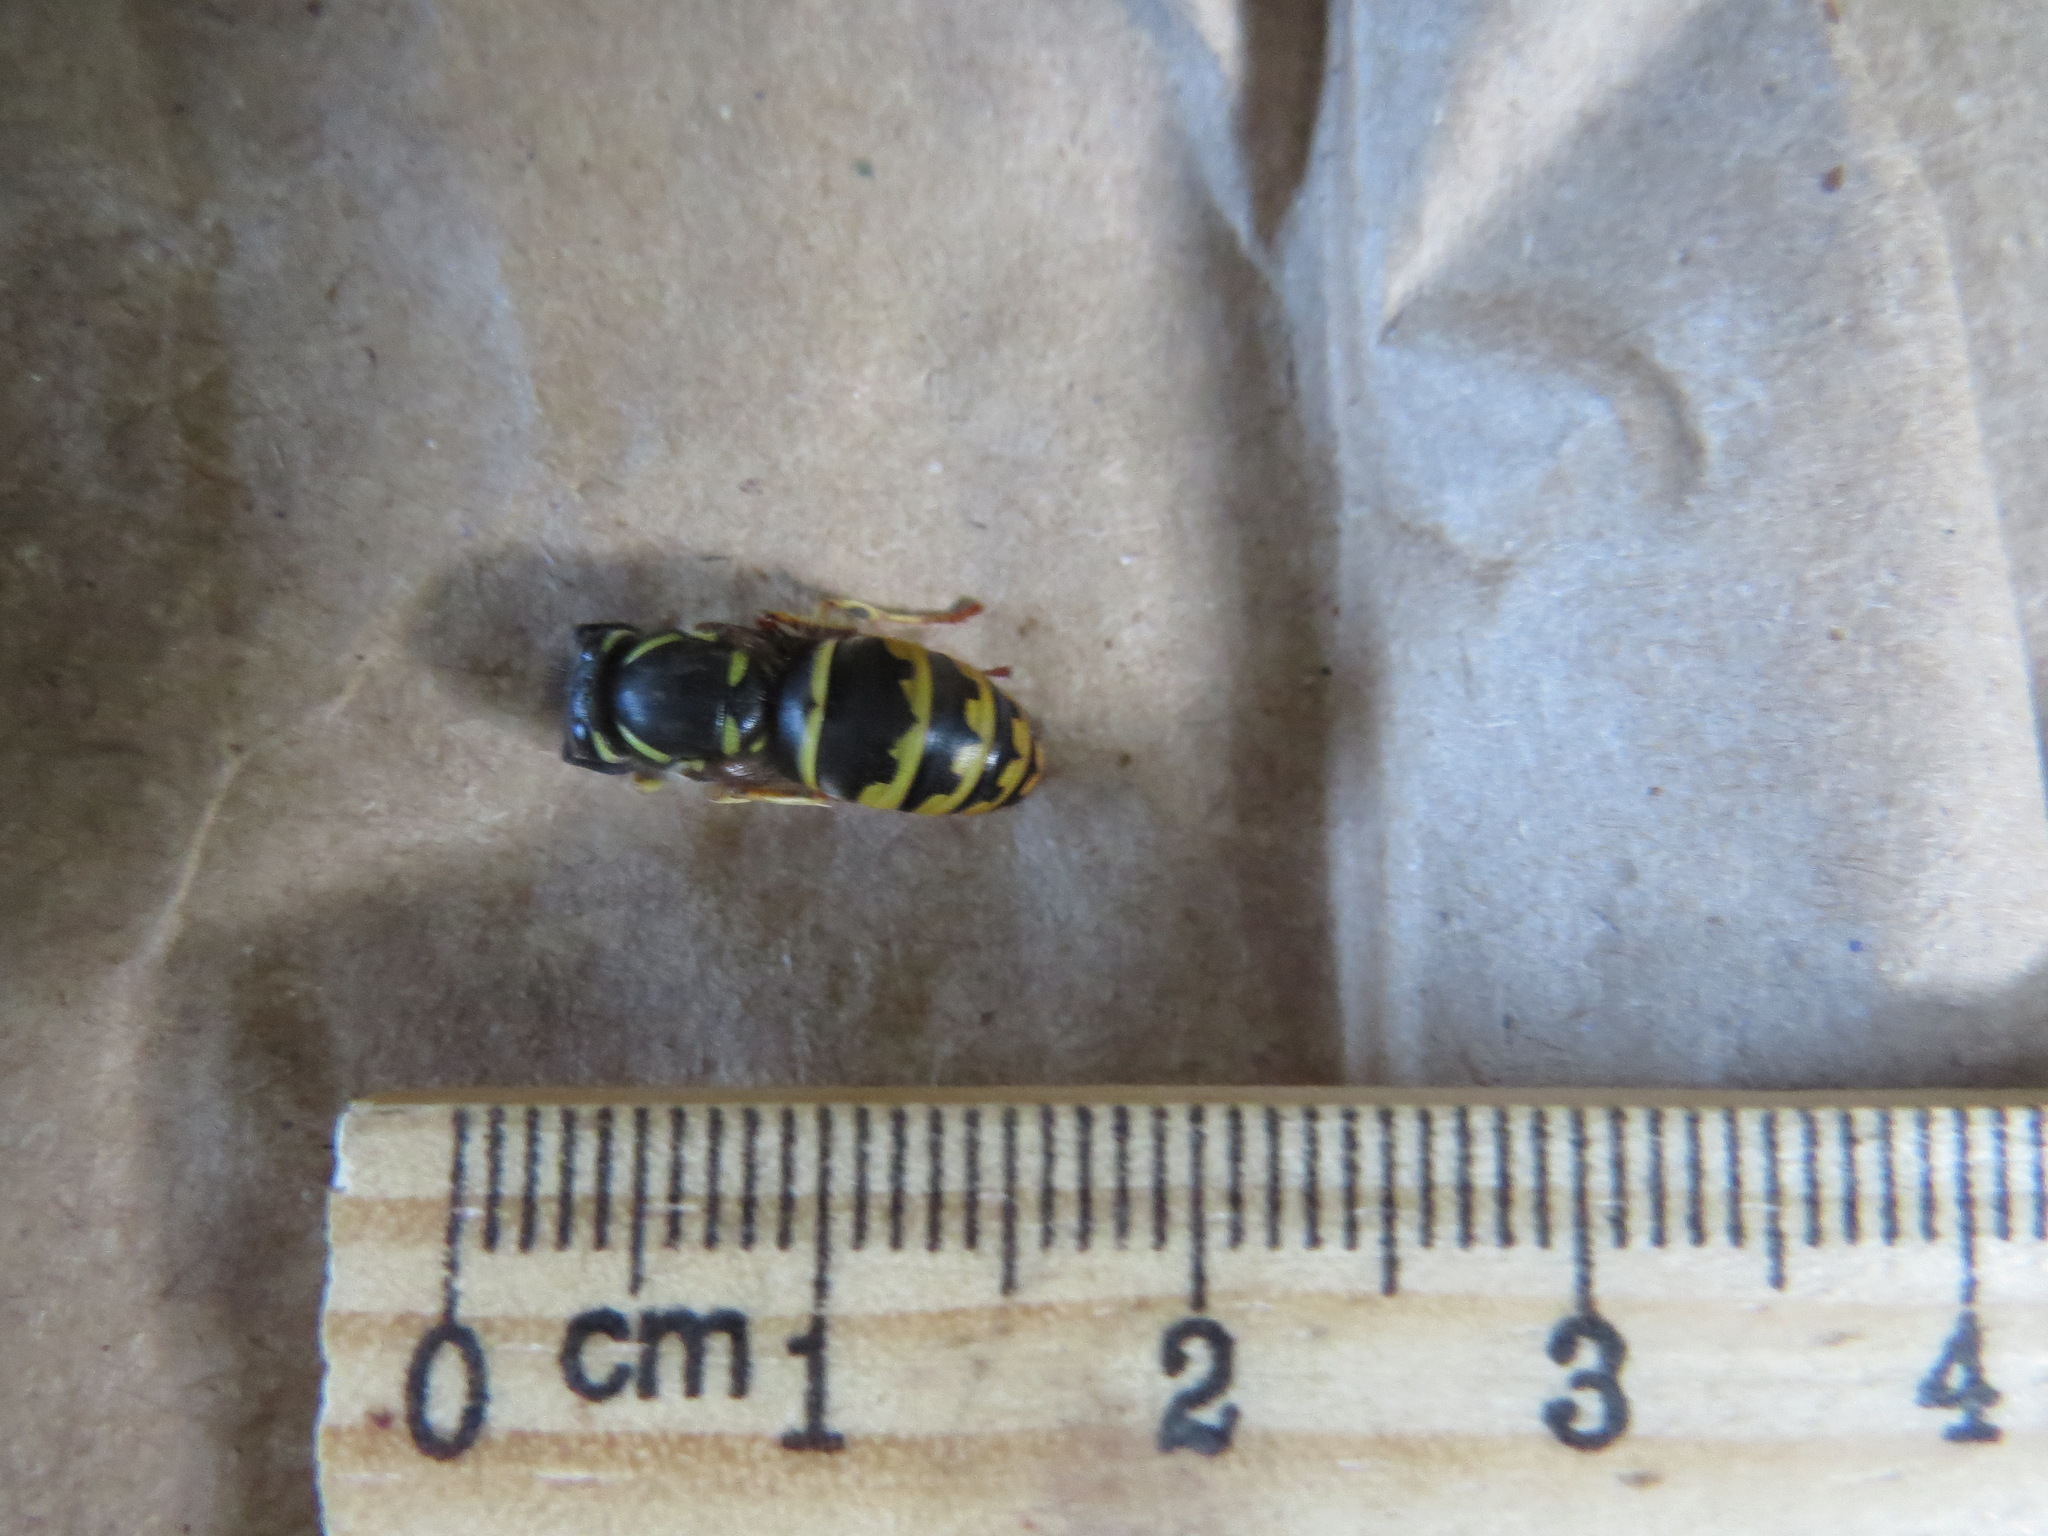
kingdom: Animalia
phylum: Arthropoda
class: Insecta
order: Hymenoptera
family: Vespidae
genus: Vespula
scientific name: Vespula alascensis
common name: Alaska yellowjacket
